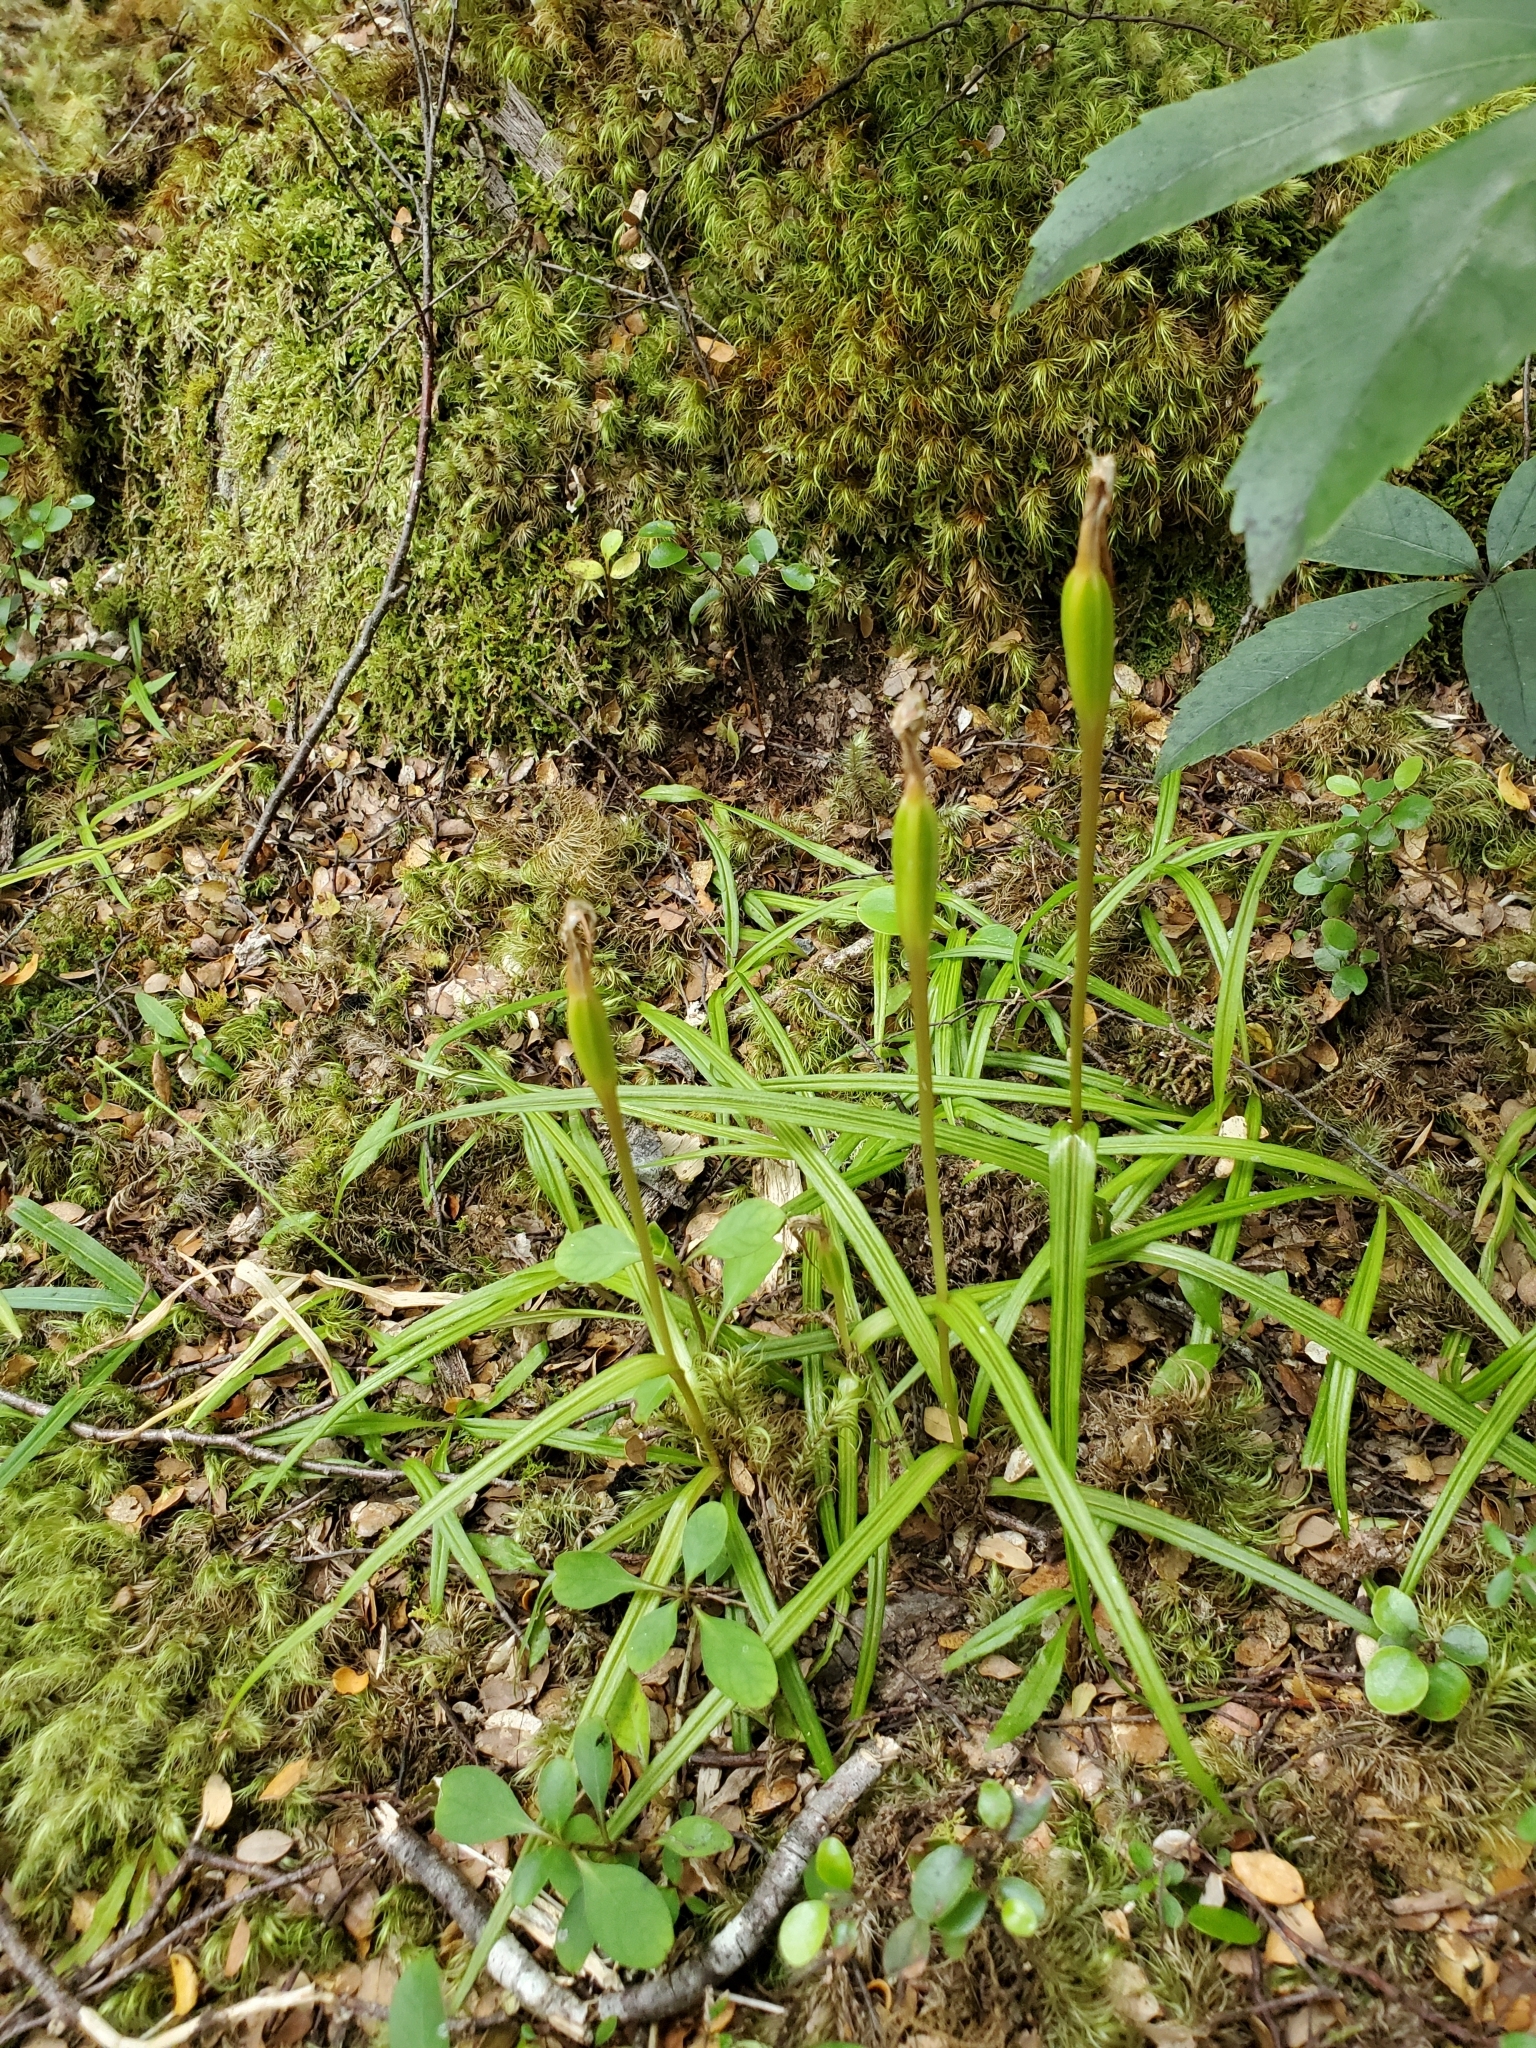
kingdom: Plantae
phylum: Tracheophyta
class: Liliopsida
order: Asparagales
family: Orchidaceae
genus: Pterostylis
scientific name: Pterostylis graminea
